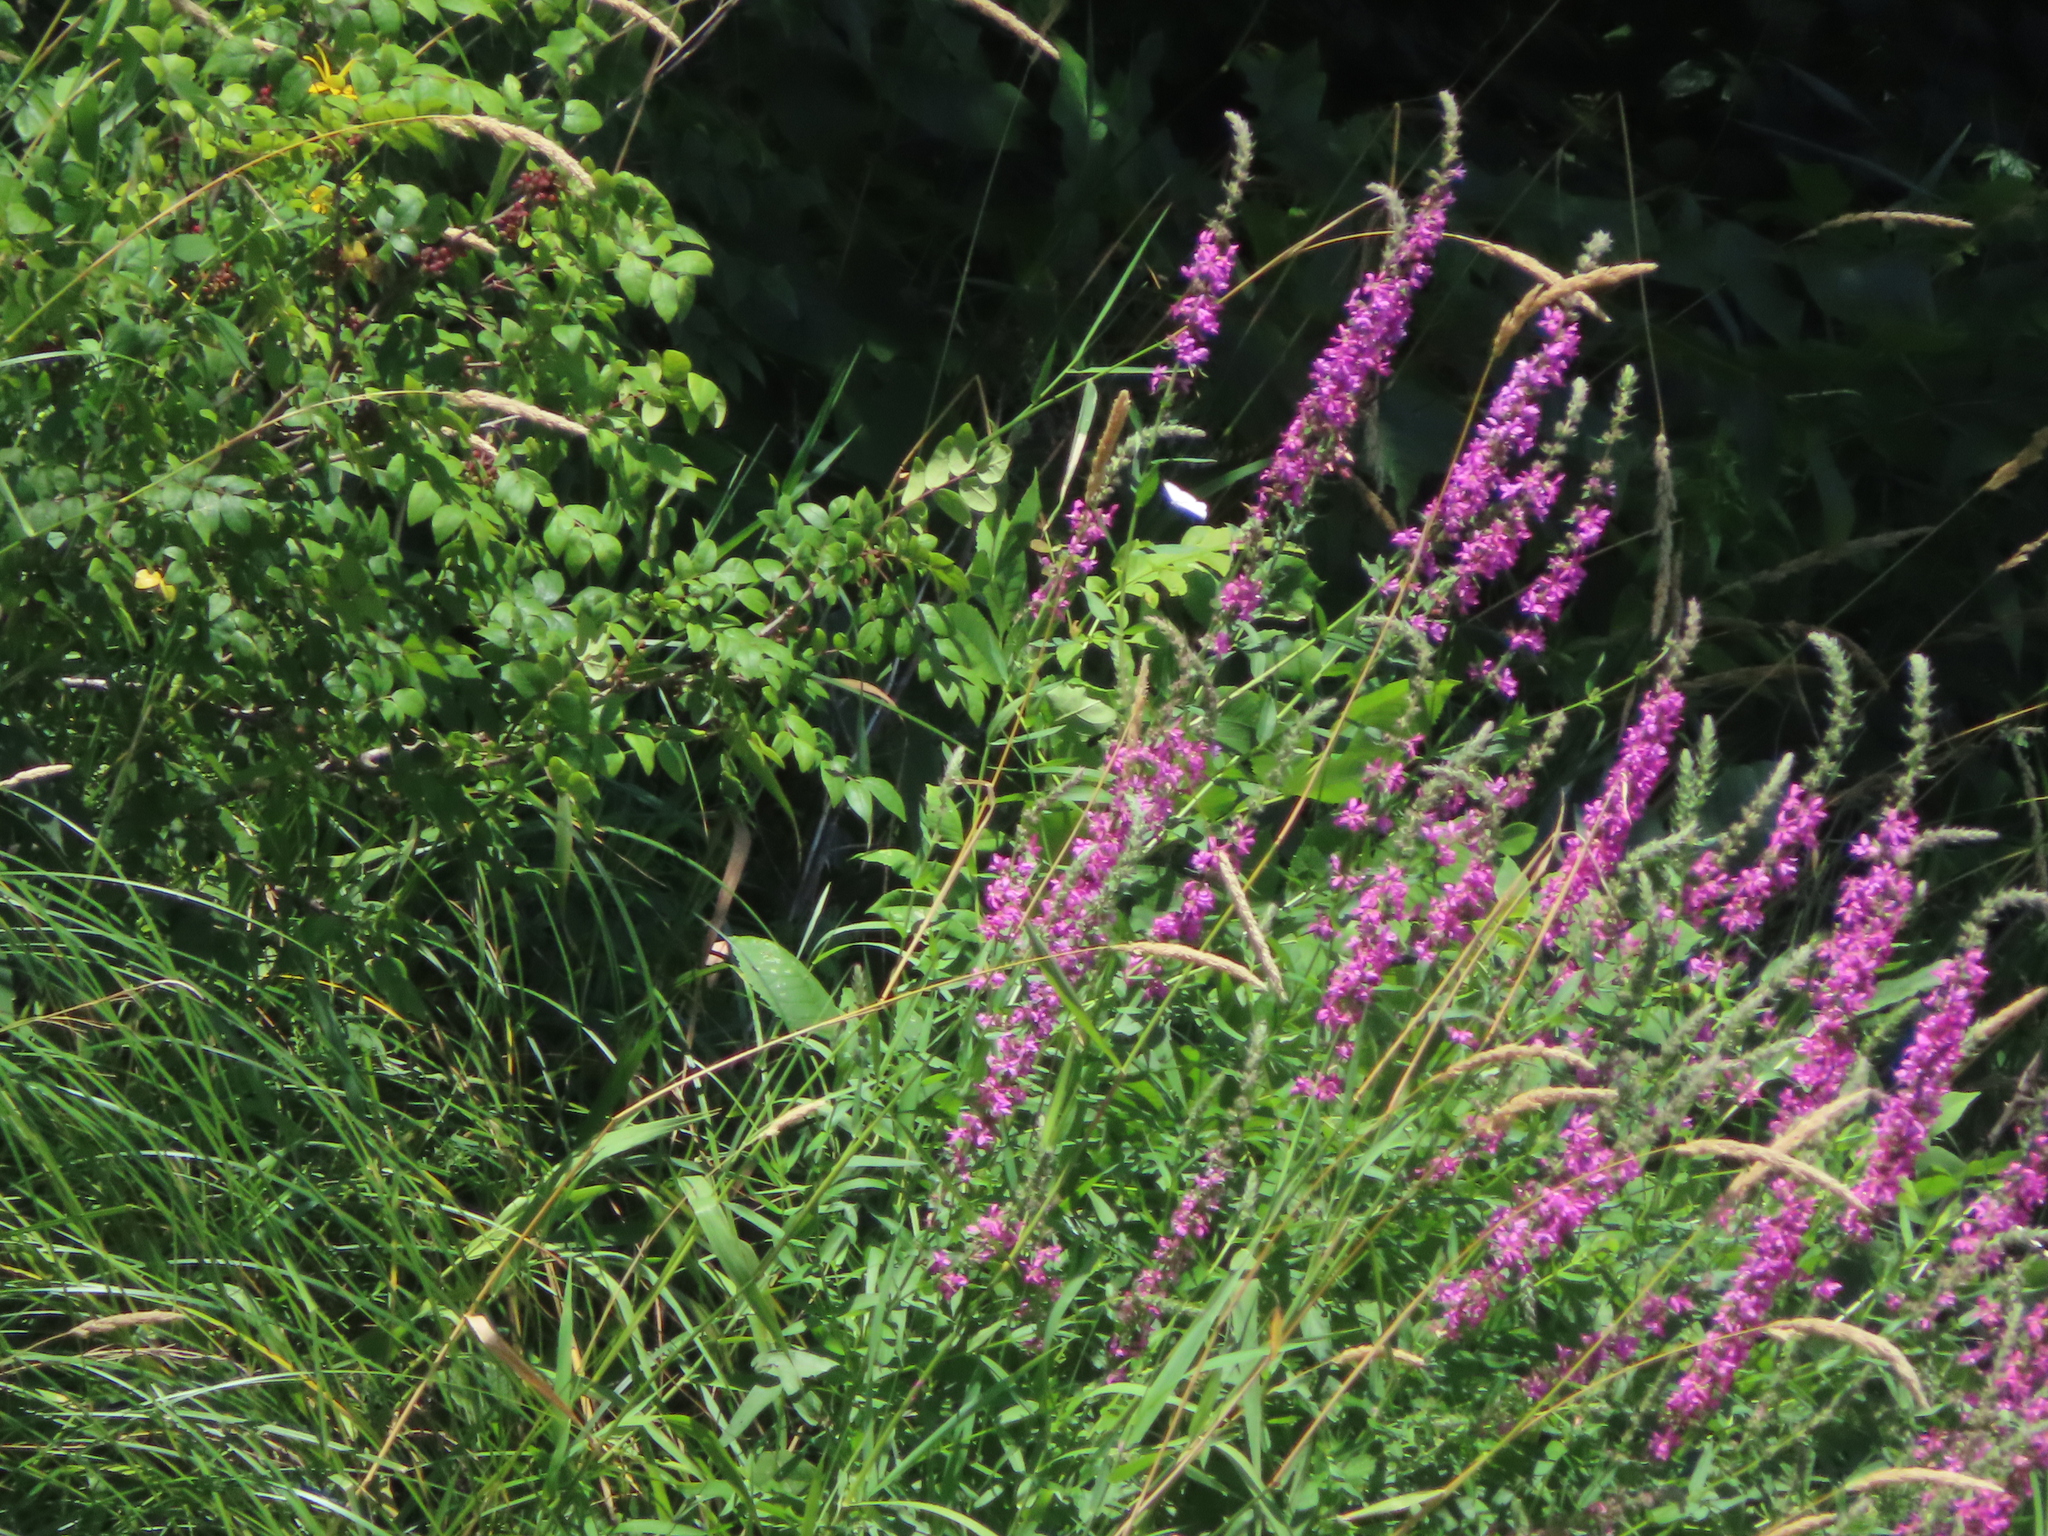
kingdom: Plantae
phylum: Tracheophyta
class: Magnoliopsida
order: Myrtales
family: Lythraceae
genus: Lythrum
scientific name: Lythrum salicaria
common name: Purple loosestrife
